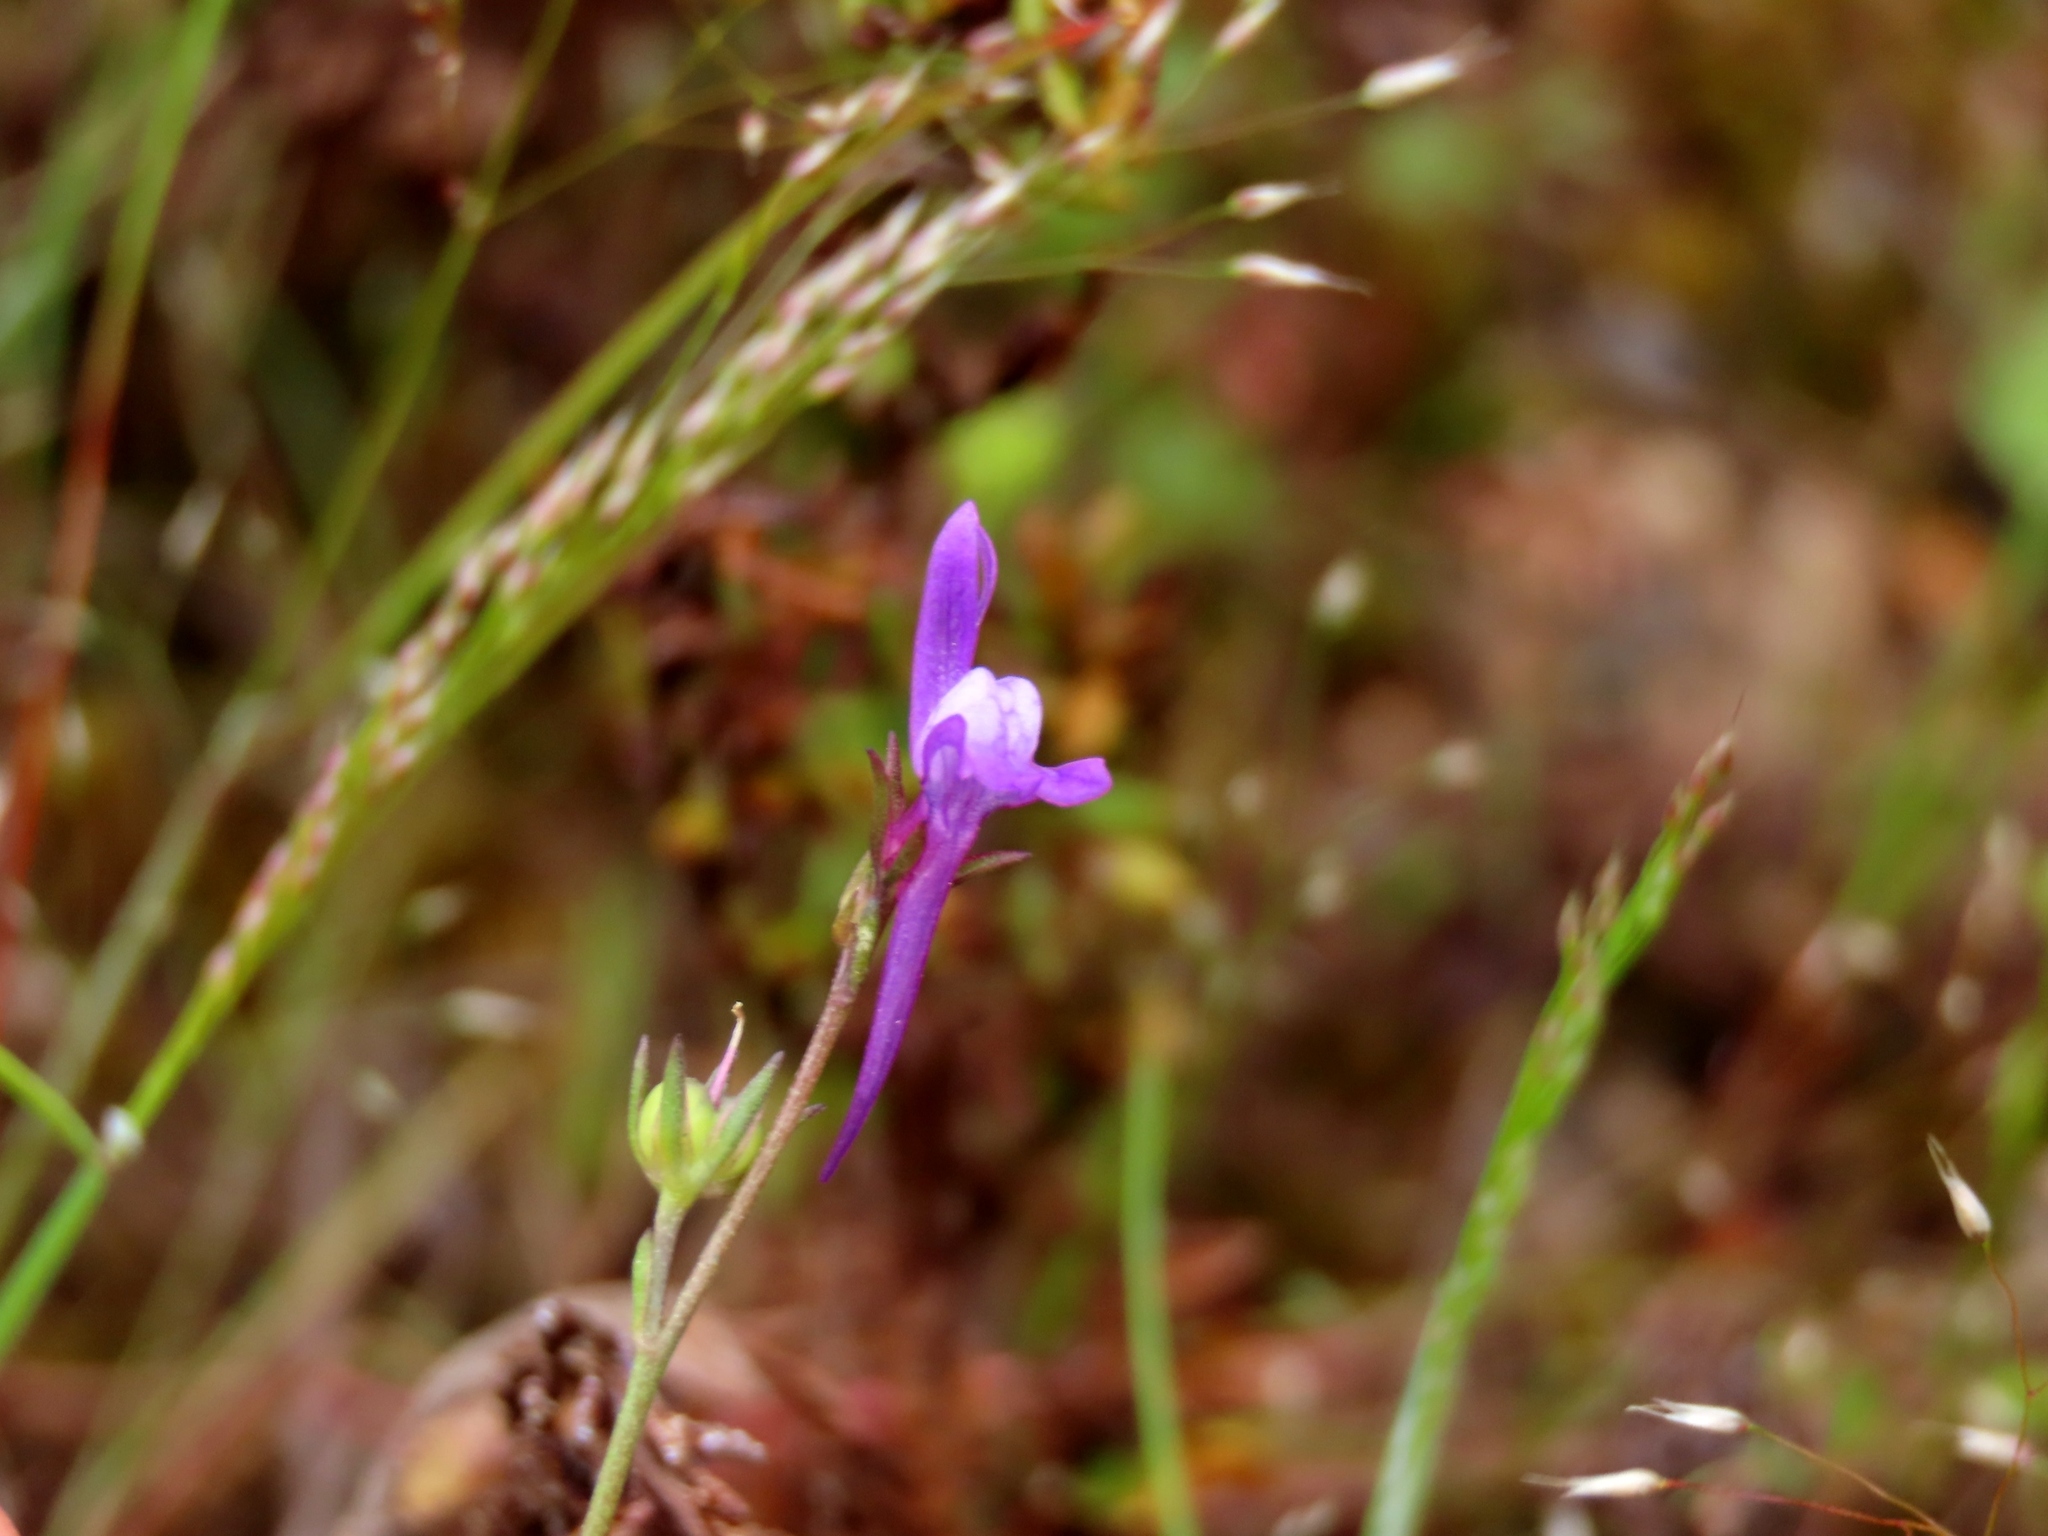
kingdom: Plantae
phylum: Tracheophyta
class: Magnoliopsida
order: Lamiales
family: Plantaginaceae
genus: Linaria
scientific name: Linaria pelisseriana
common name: Jersey toadflax
